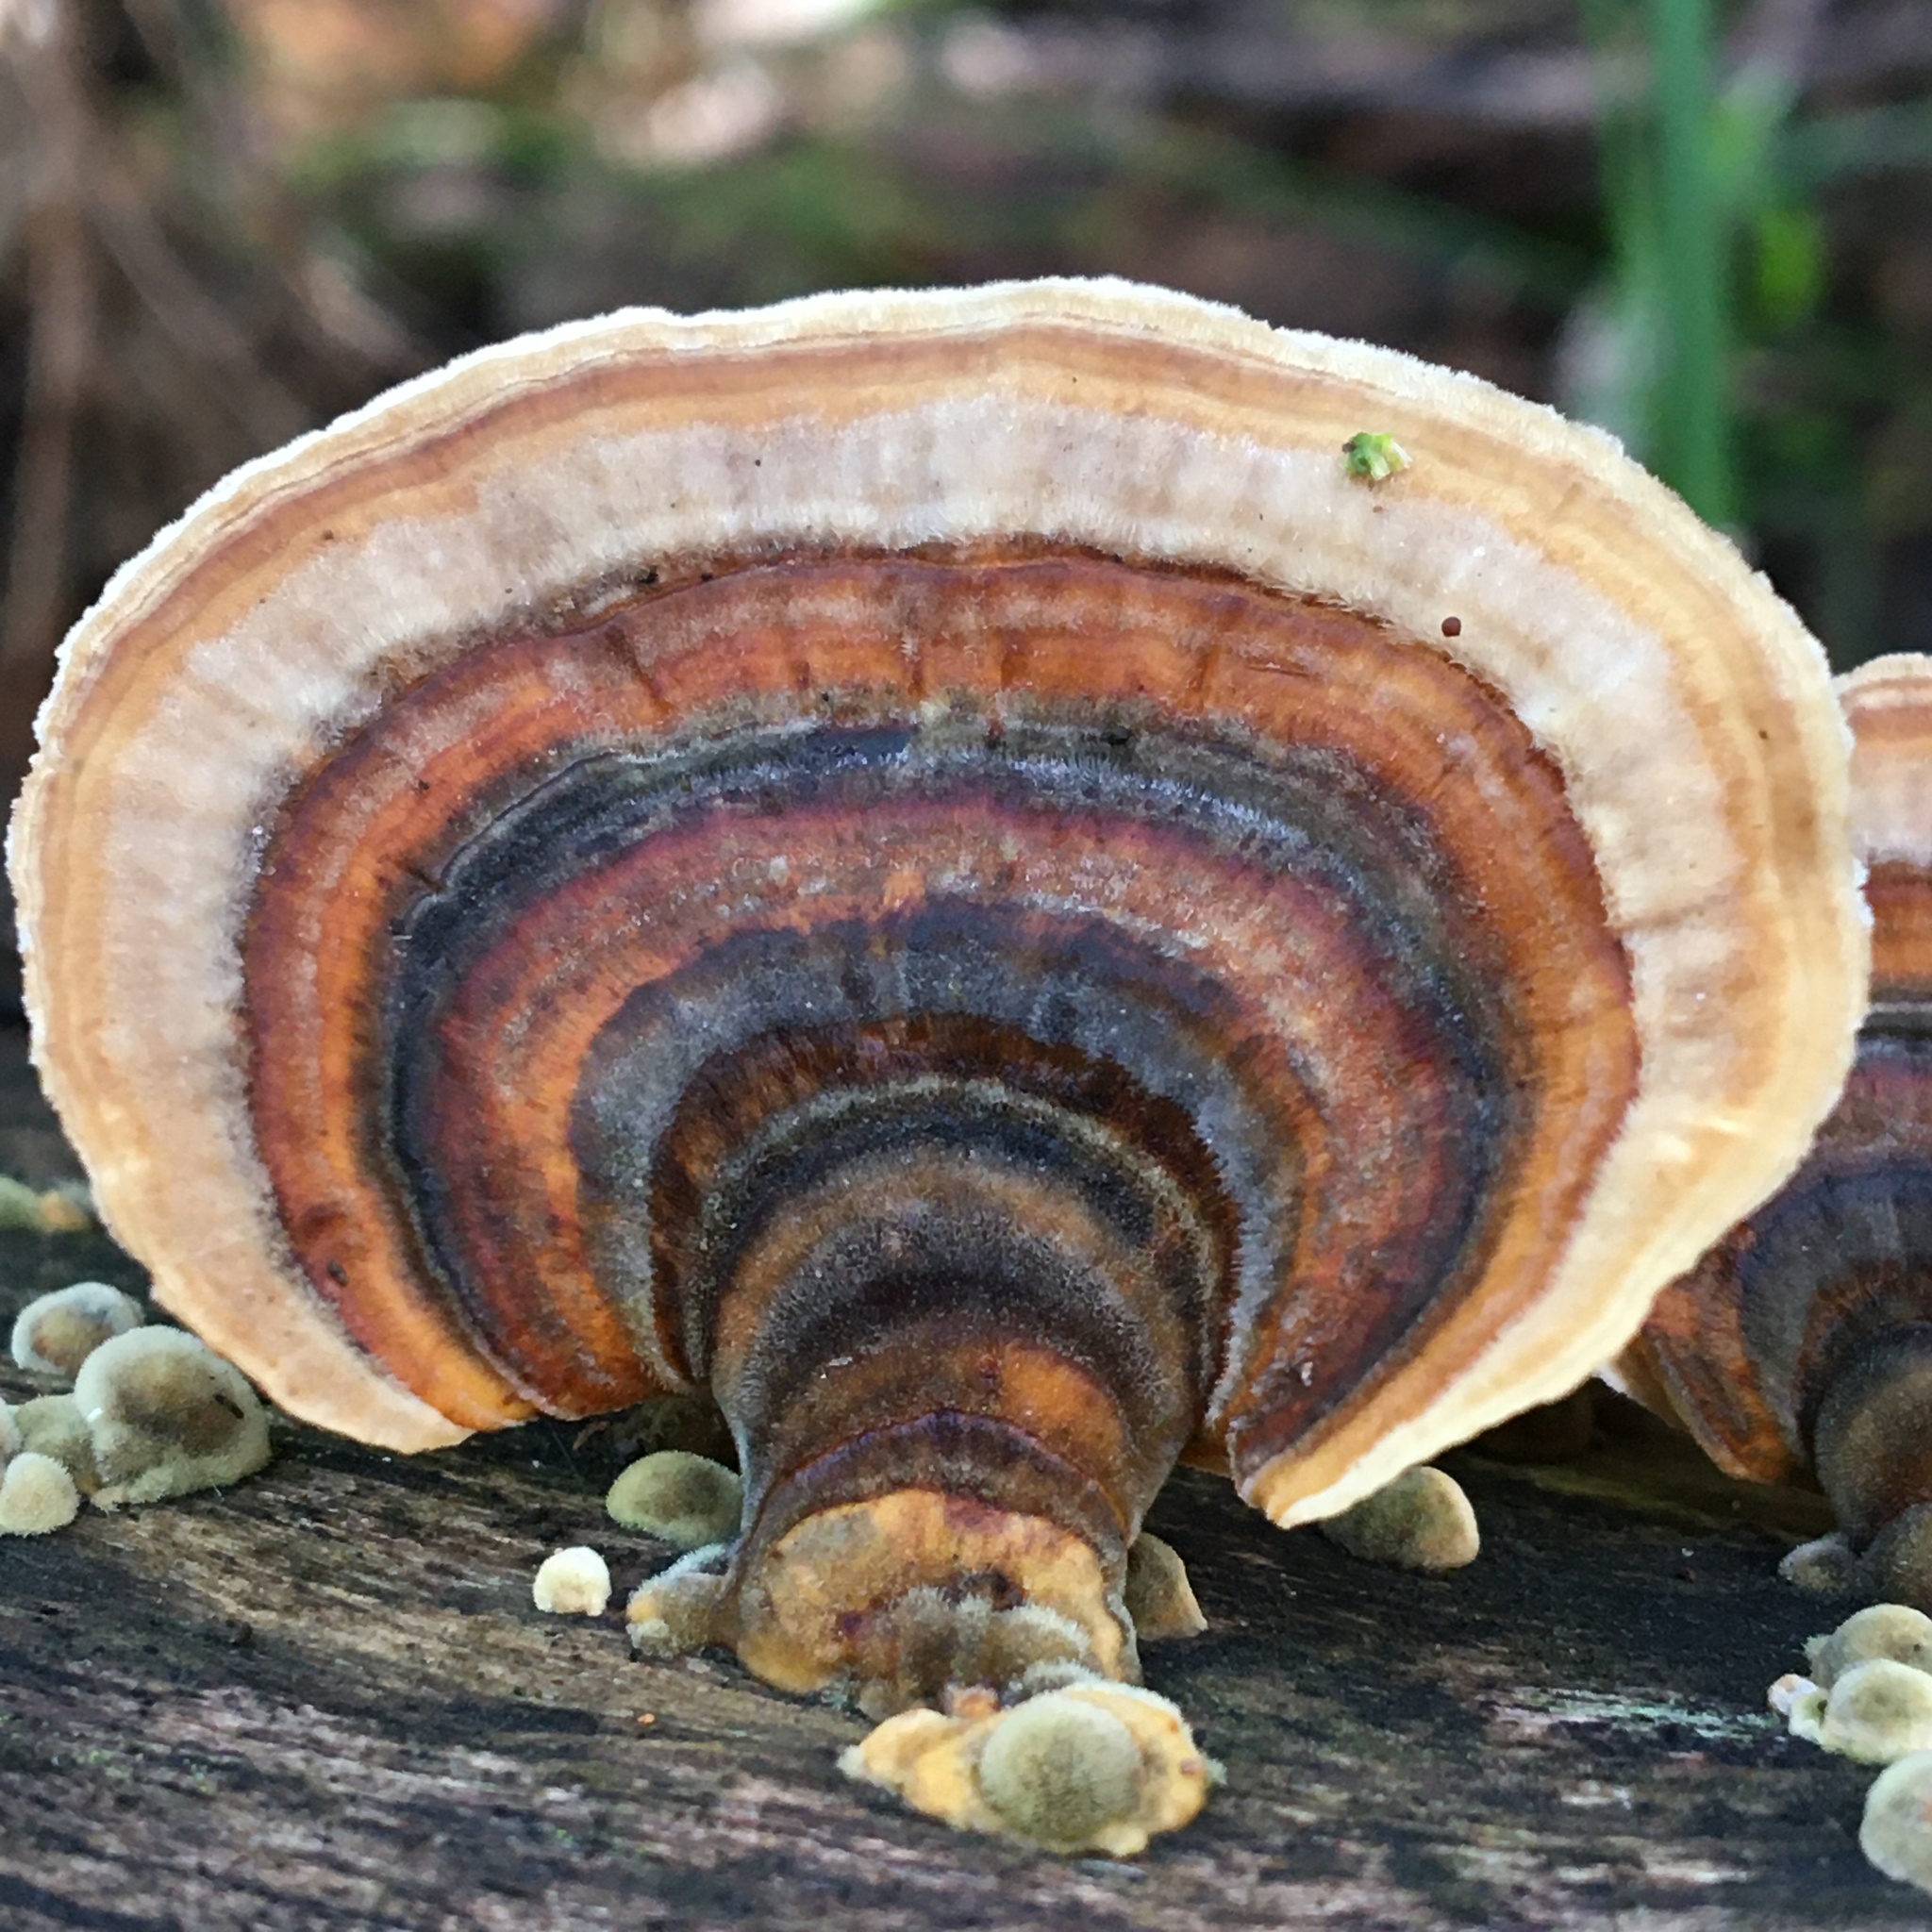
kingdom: Fungi
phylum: Basidiomycota
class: Agaricomycetes
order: Polyporales
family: Polyporaceae
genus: Trametes
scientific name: Trametes versicolor
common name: Turkeytail
